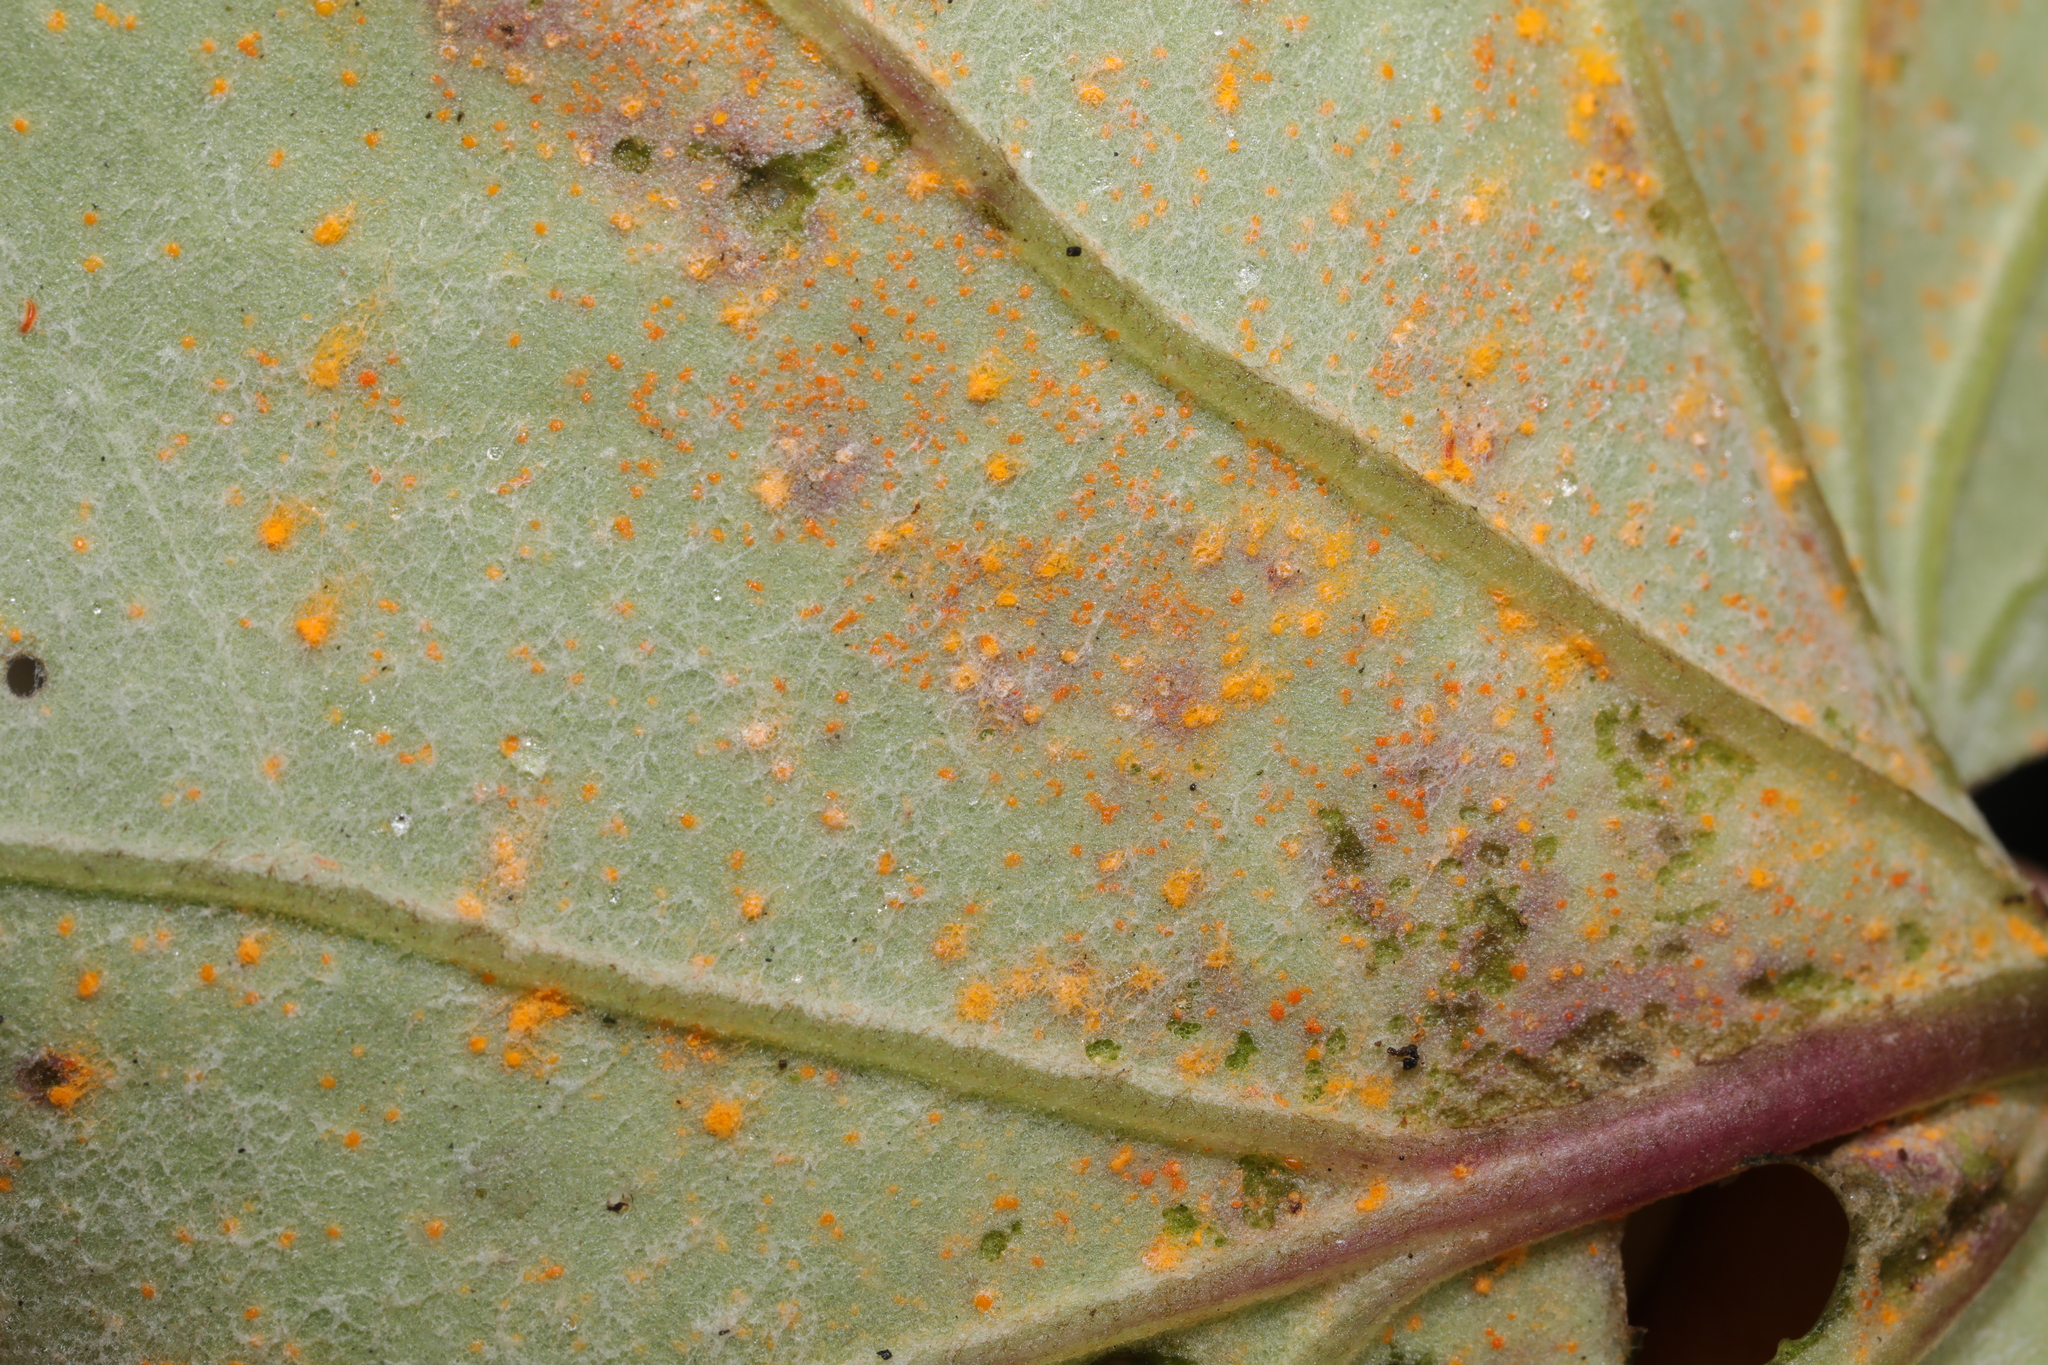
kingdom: Fungi
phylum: Basidiomycota
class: Pucciniomycetes
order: Pucciniales
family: Coleosporiaceae
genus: Coleosporium
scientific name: Coleosporium tussilaginis
